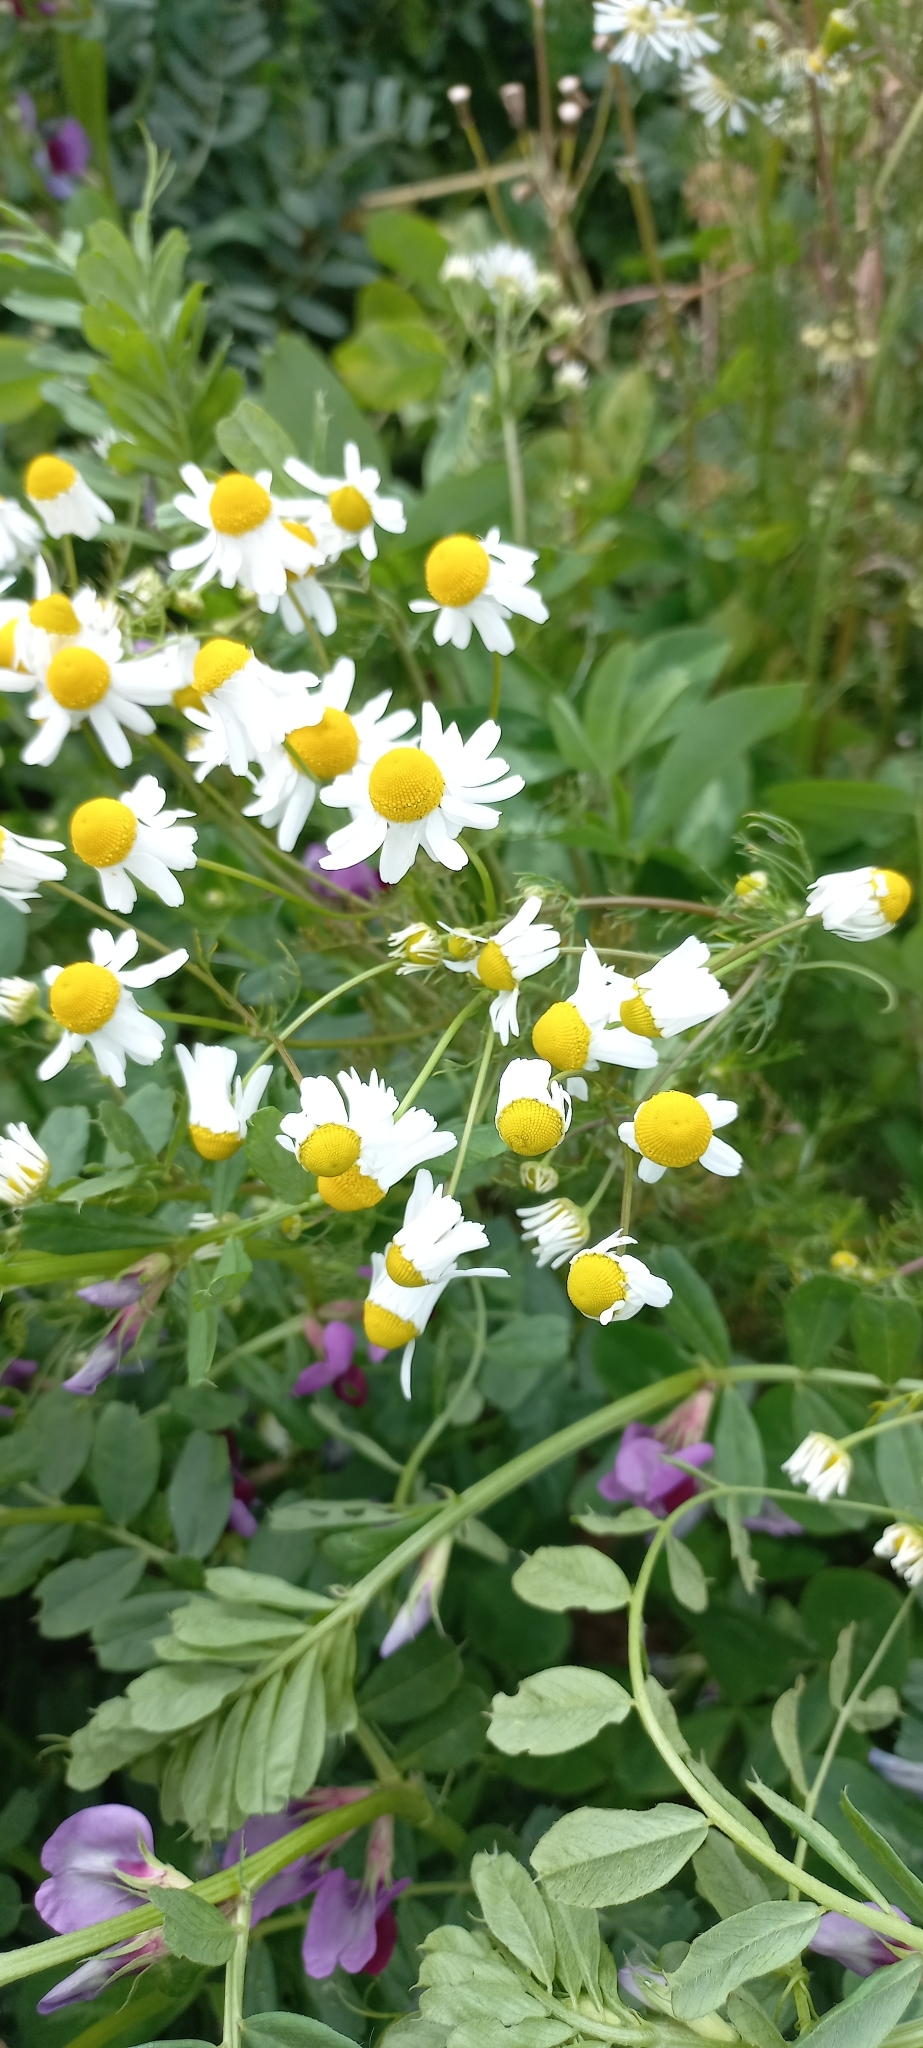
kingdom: Plantae
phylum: Tracheophyta
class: Magnoliopsida
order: Asterales
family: Asteraceae
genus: Matricaria
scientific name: Matricaria chamomilla
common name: Scented mayweed
